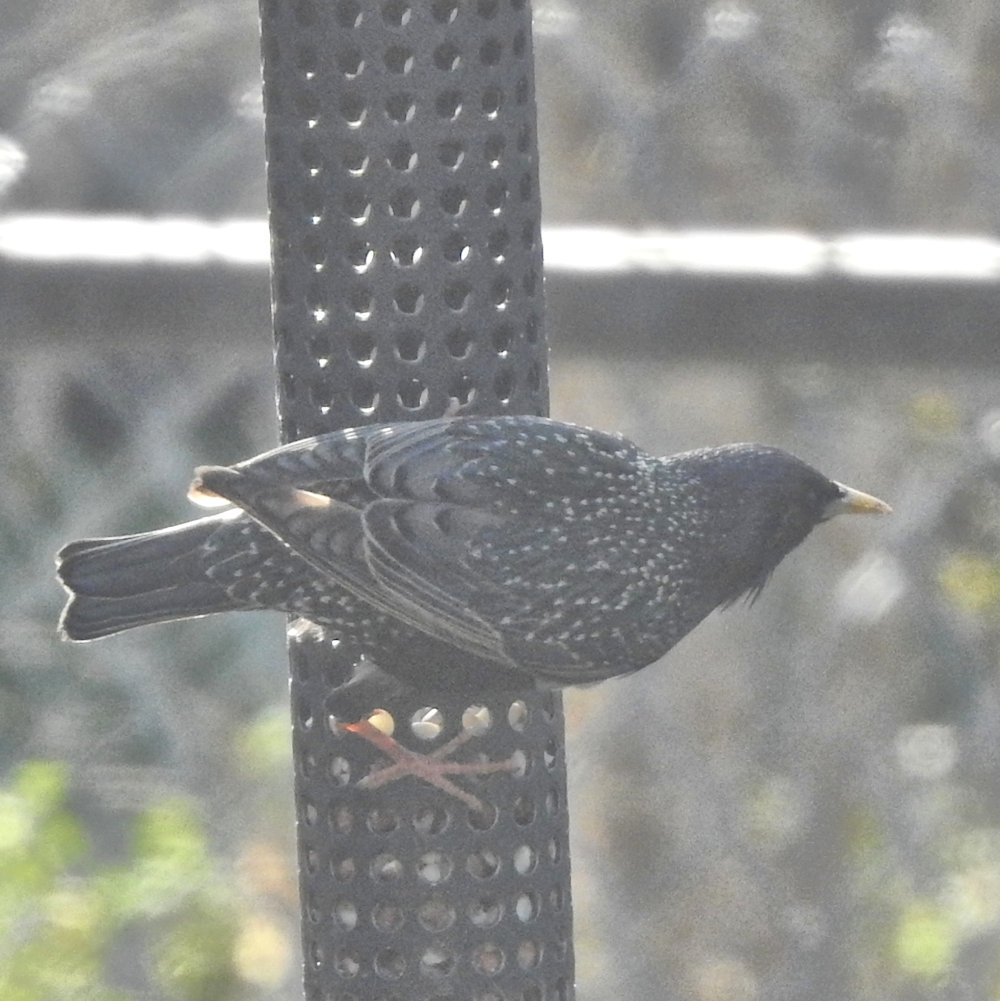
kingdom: Animalia
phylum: Chordata
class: Aves
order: Passeriformes
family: Sturnidae
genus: Sturnus
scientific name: Sturnus vulgaris
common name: Common starling
